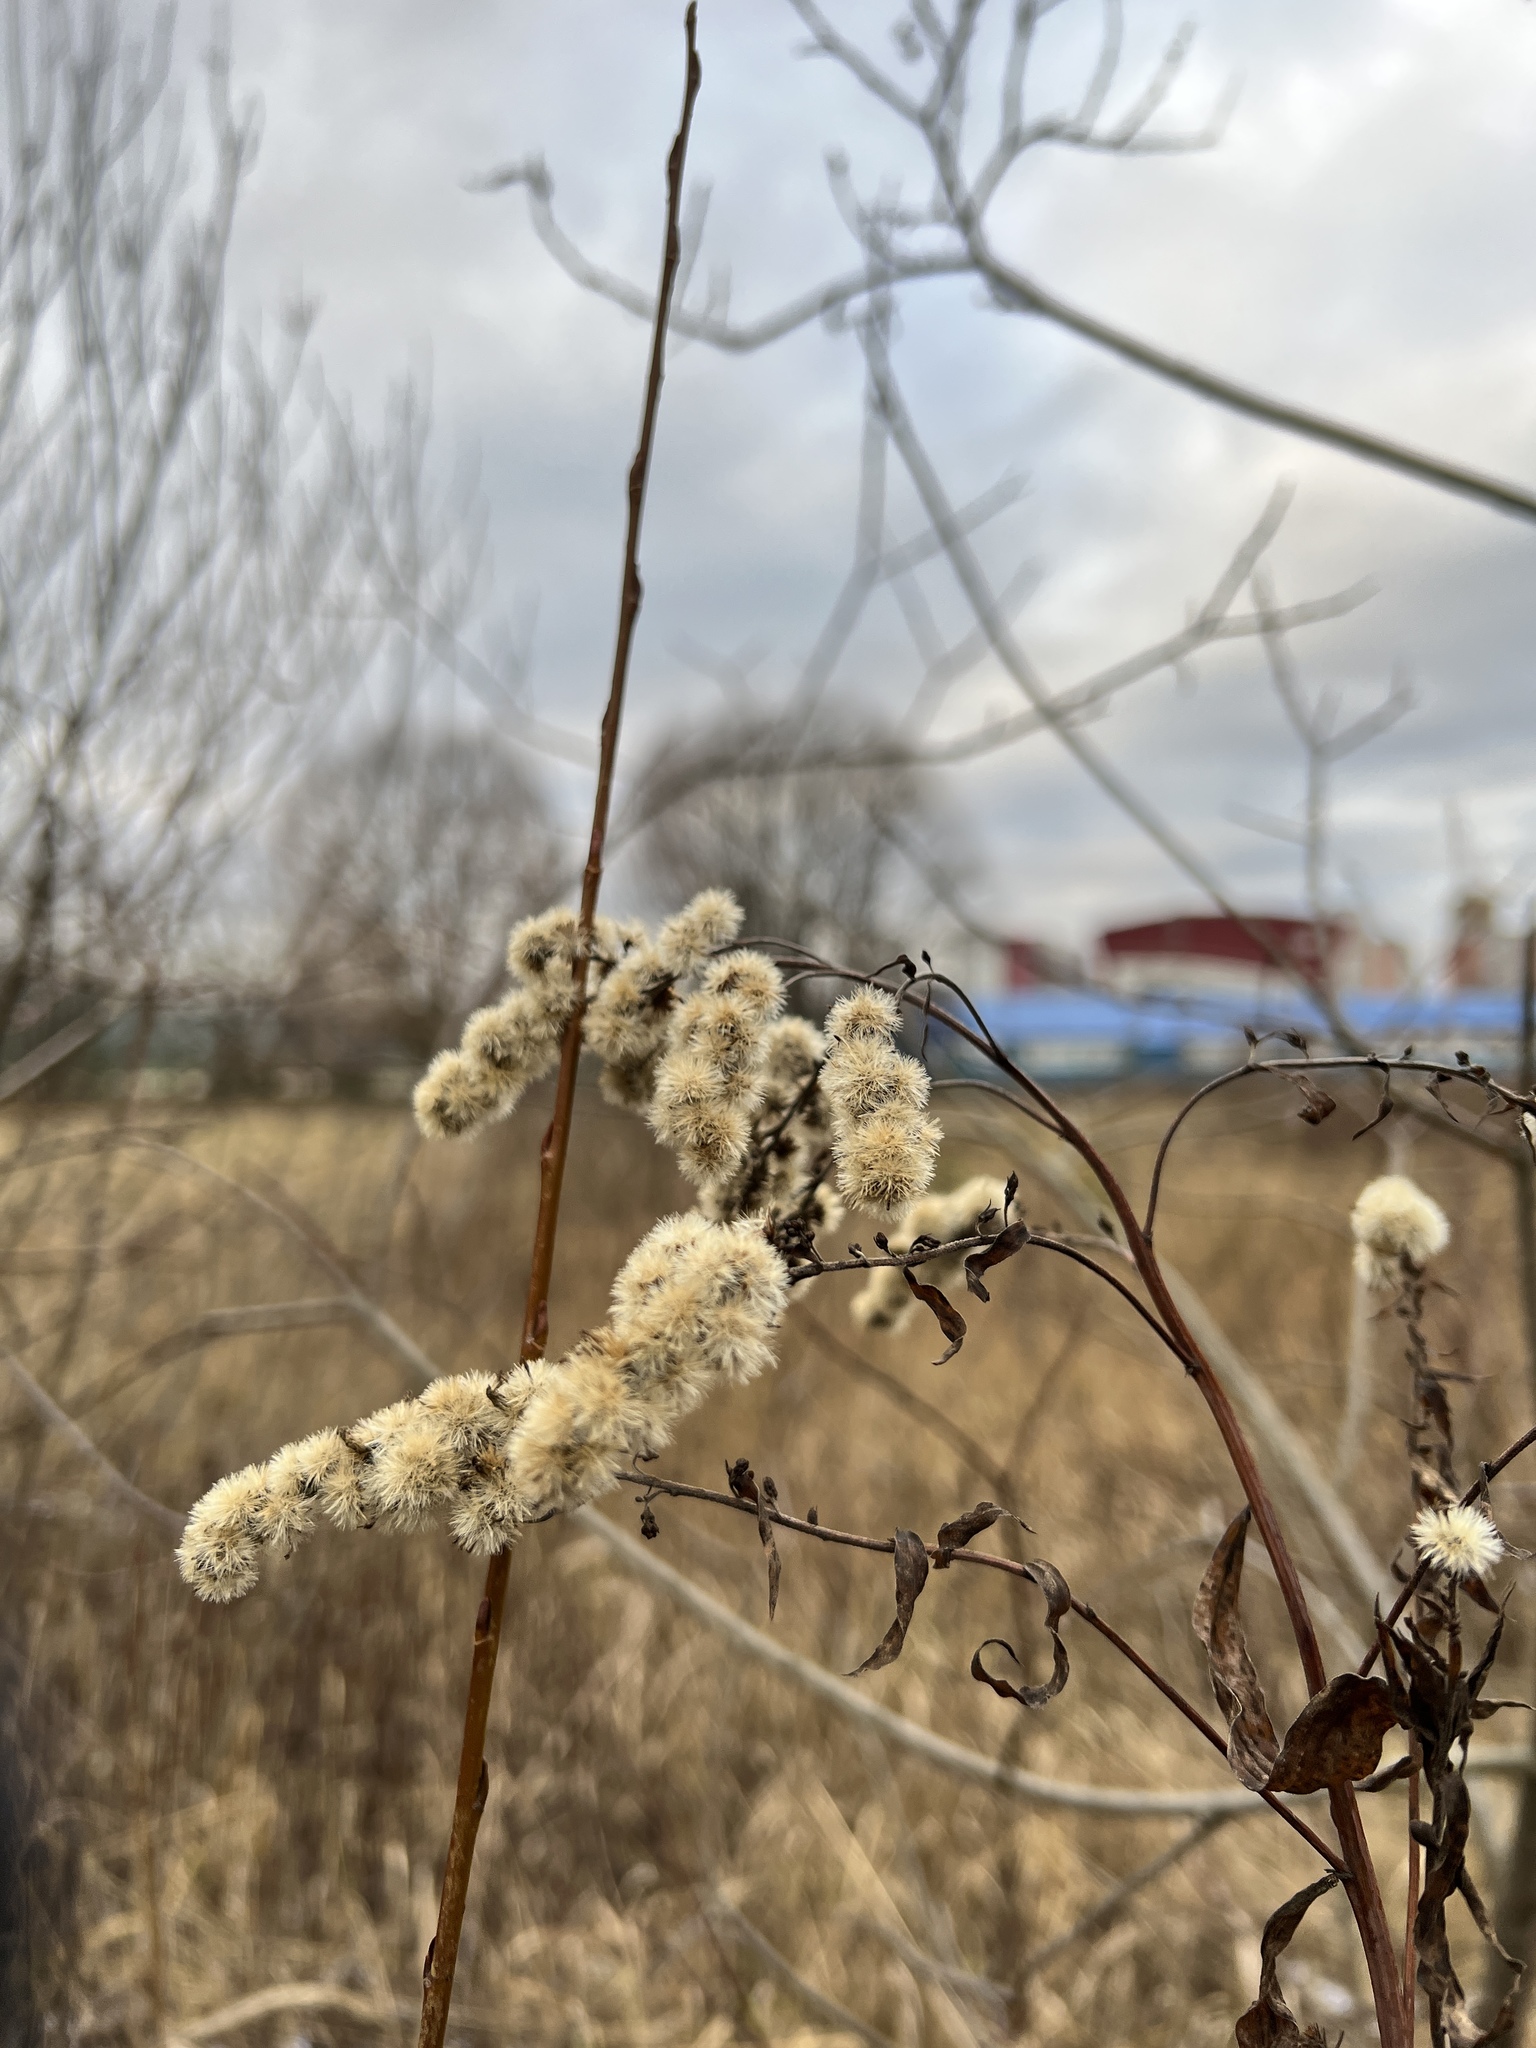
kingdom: Plantae
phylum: Tracheophyta
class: Magnoliopsida
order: Asterales
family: Asteraceae
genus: Solidago
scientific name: Solidago gigantea
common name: Giant goldenrod
